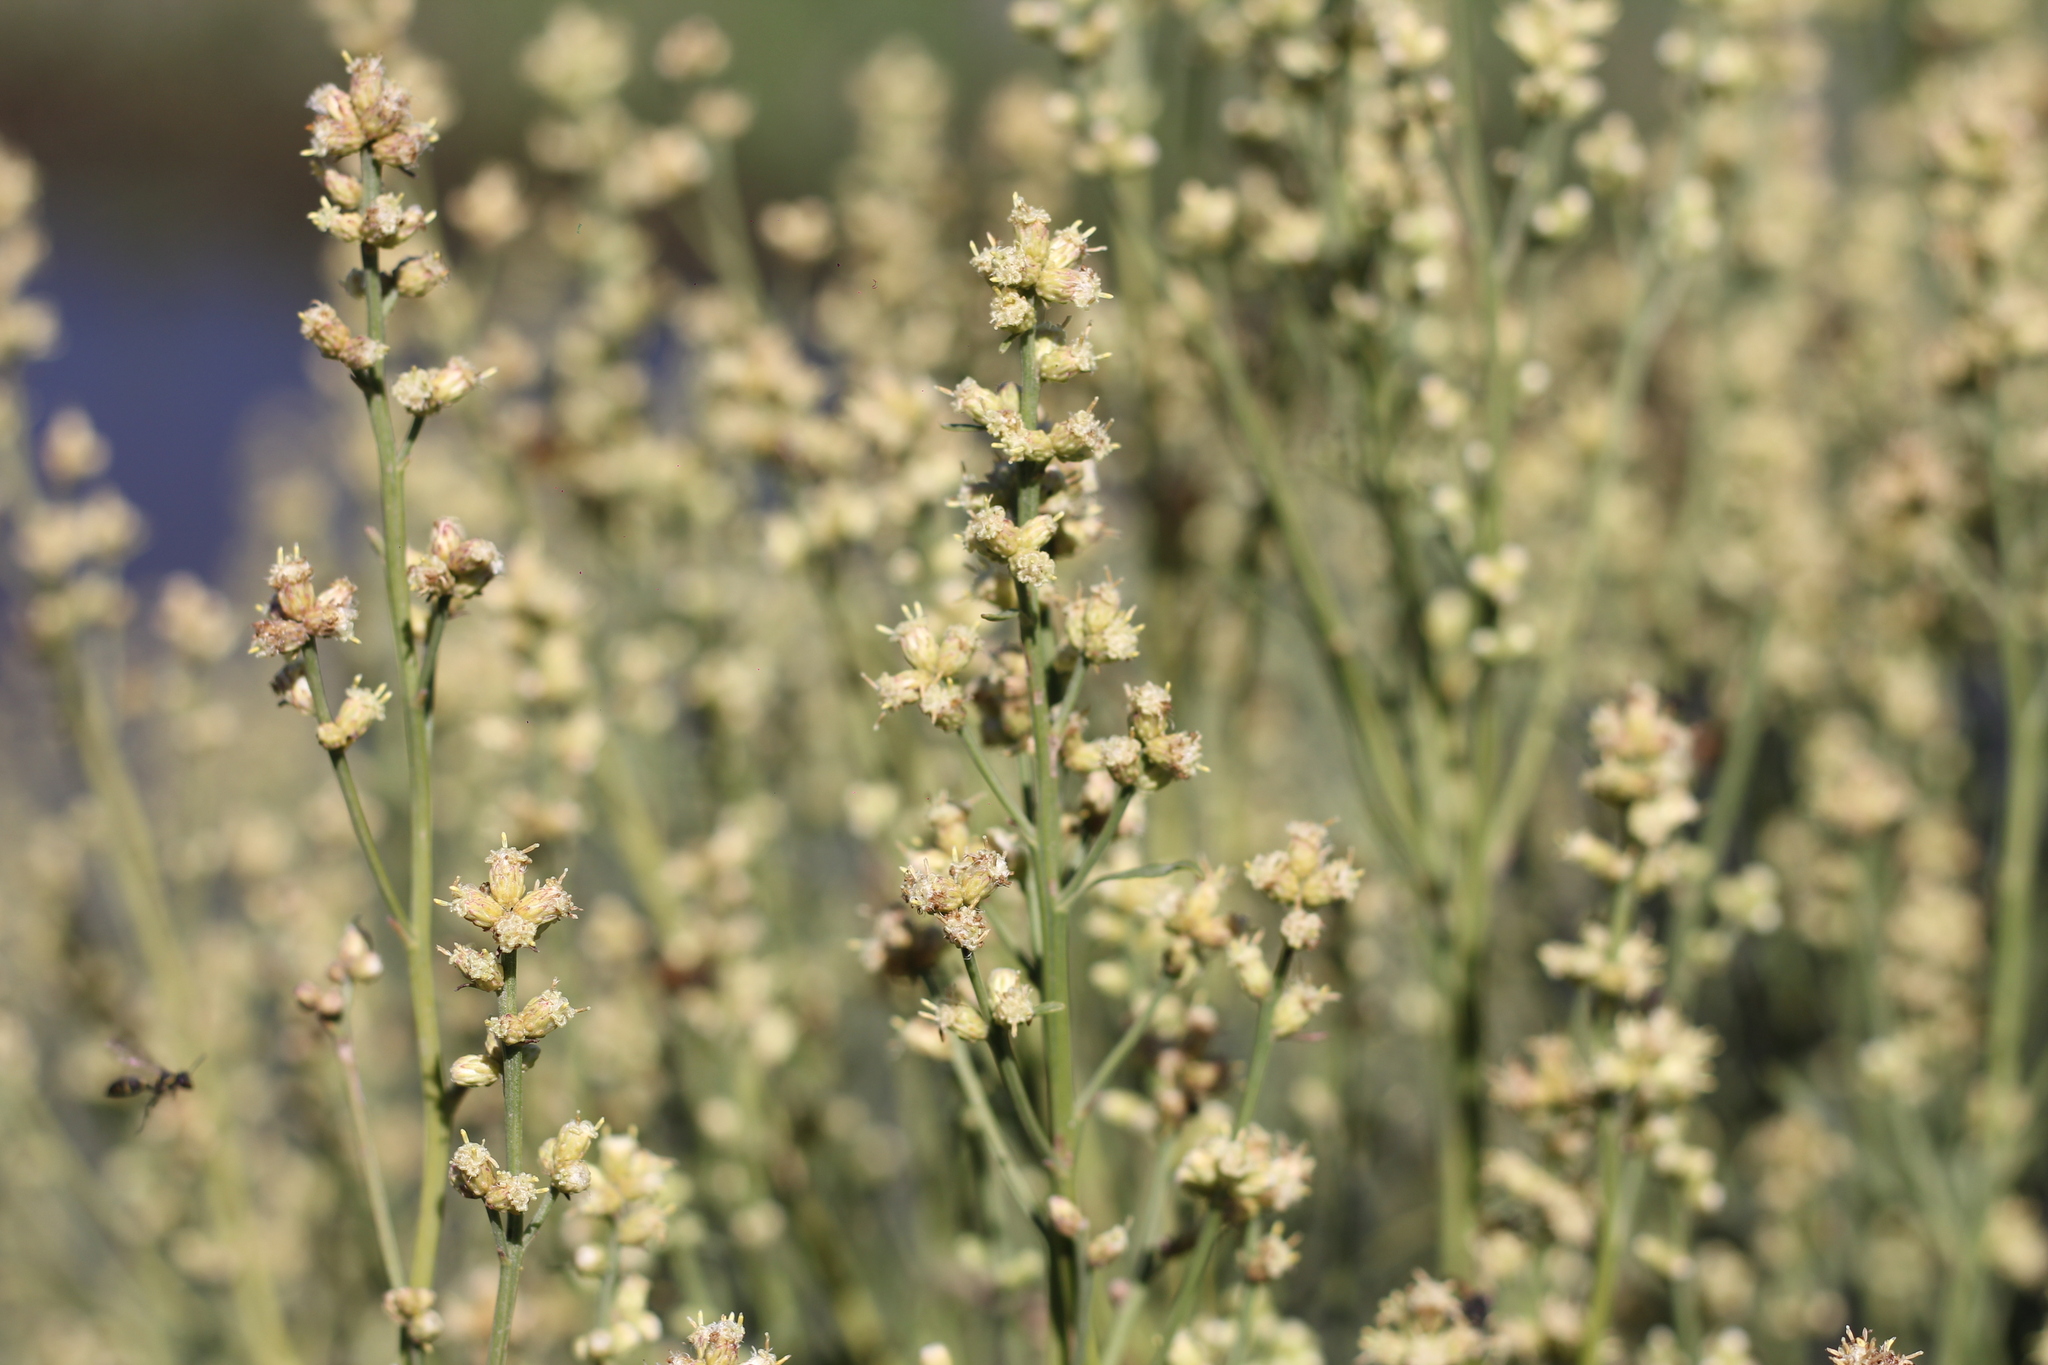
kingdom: Plantae
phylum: Tracheophyta
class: Magnoliopsida
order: Asterales
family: Asteraceae
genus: Baccharis
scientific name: Baccharis spicata
